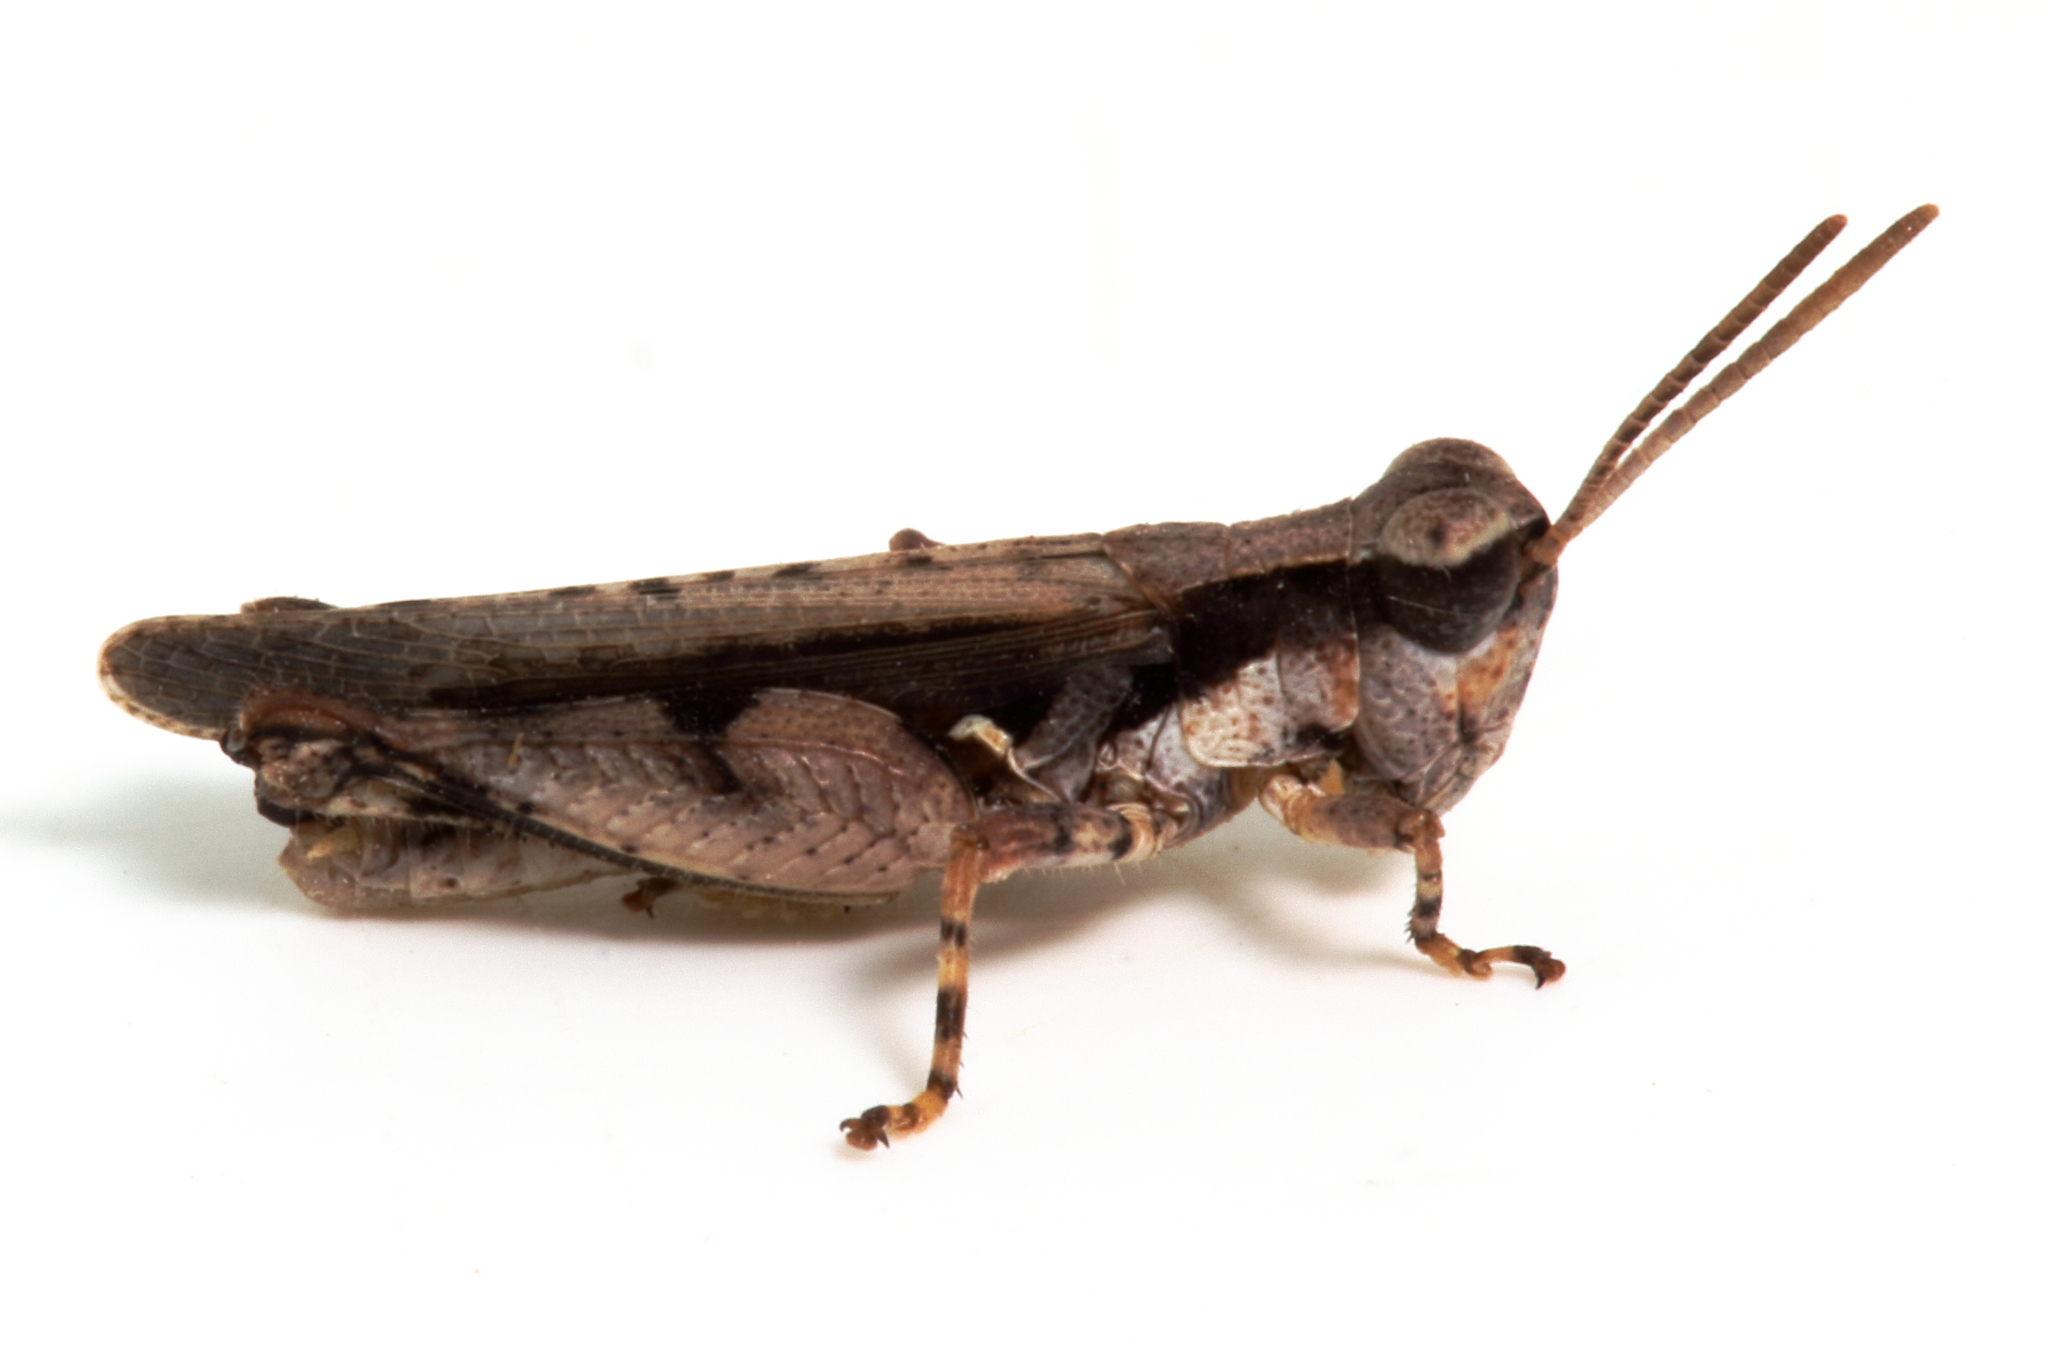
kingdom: Animalia
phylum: Arthropoda
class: Insecta
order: Orthoptera
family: Acrididae
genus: Minyacris
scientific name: Minyacris nana
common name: Tiny grasshopper
